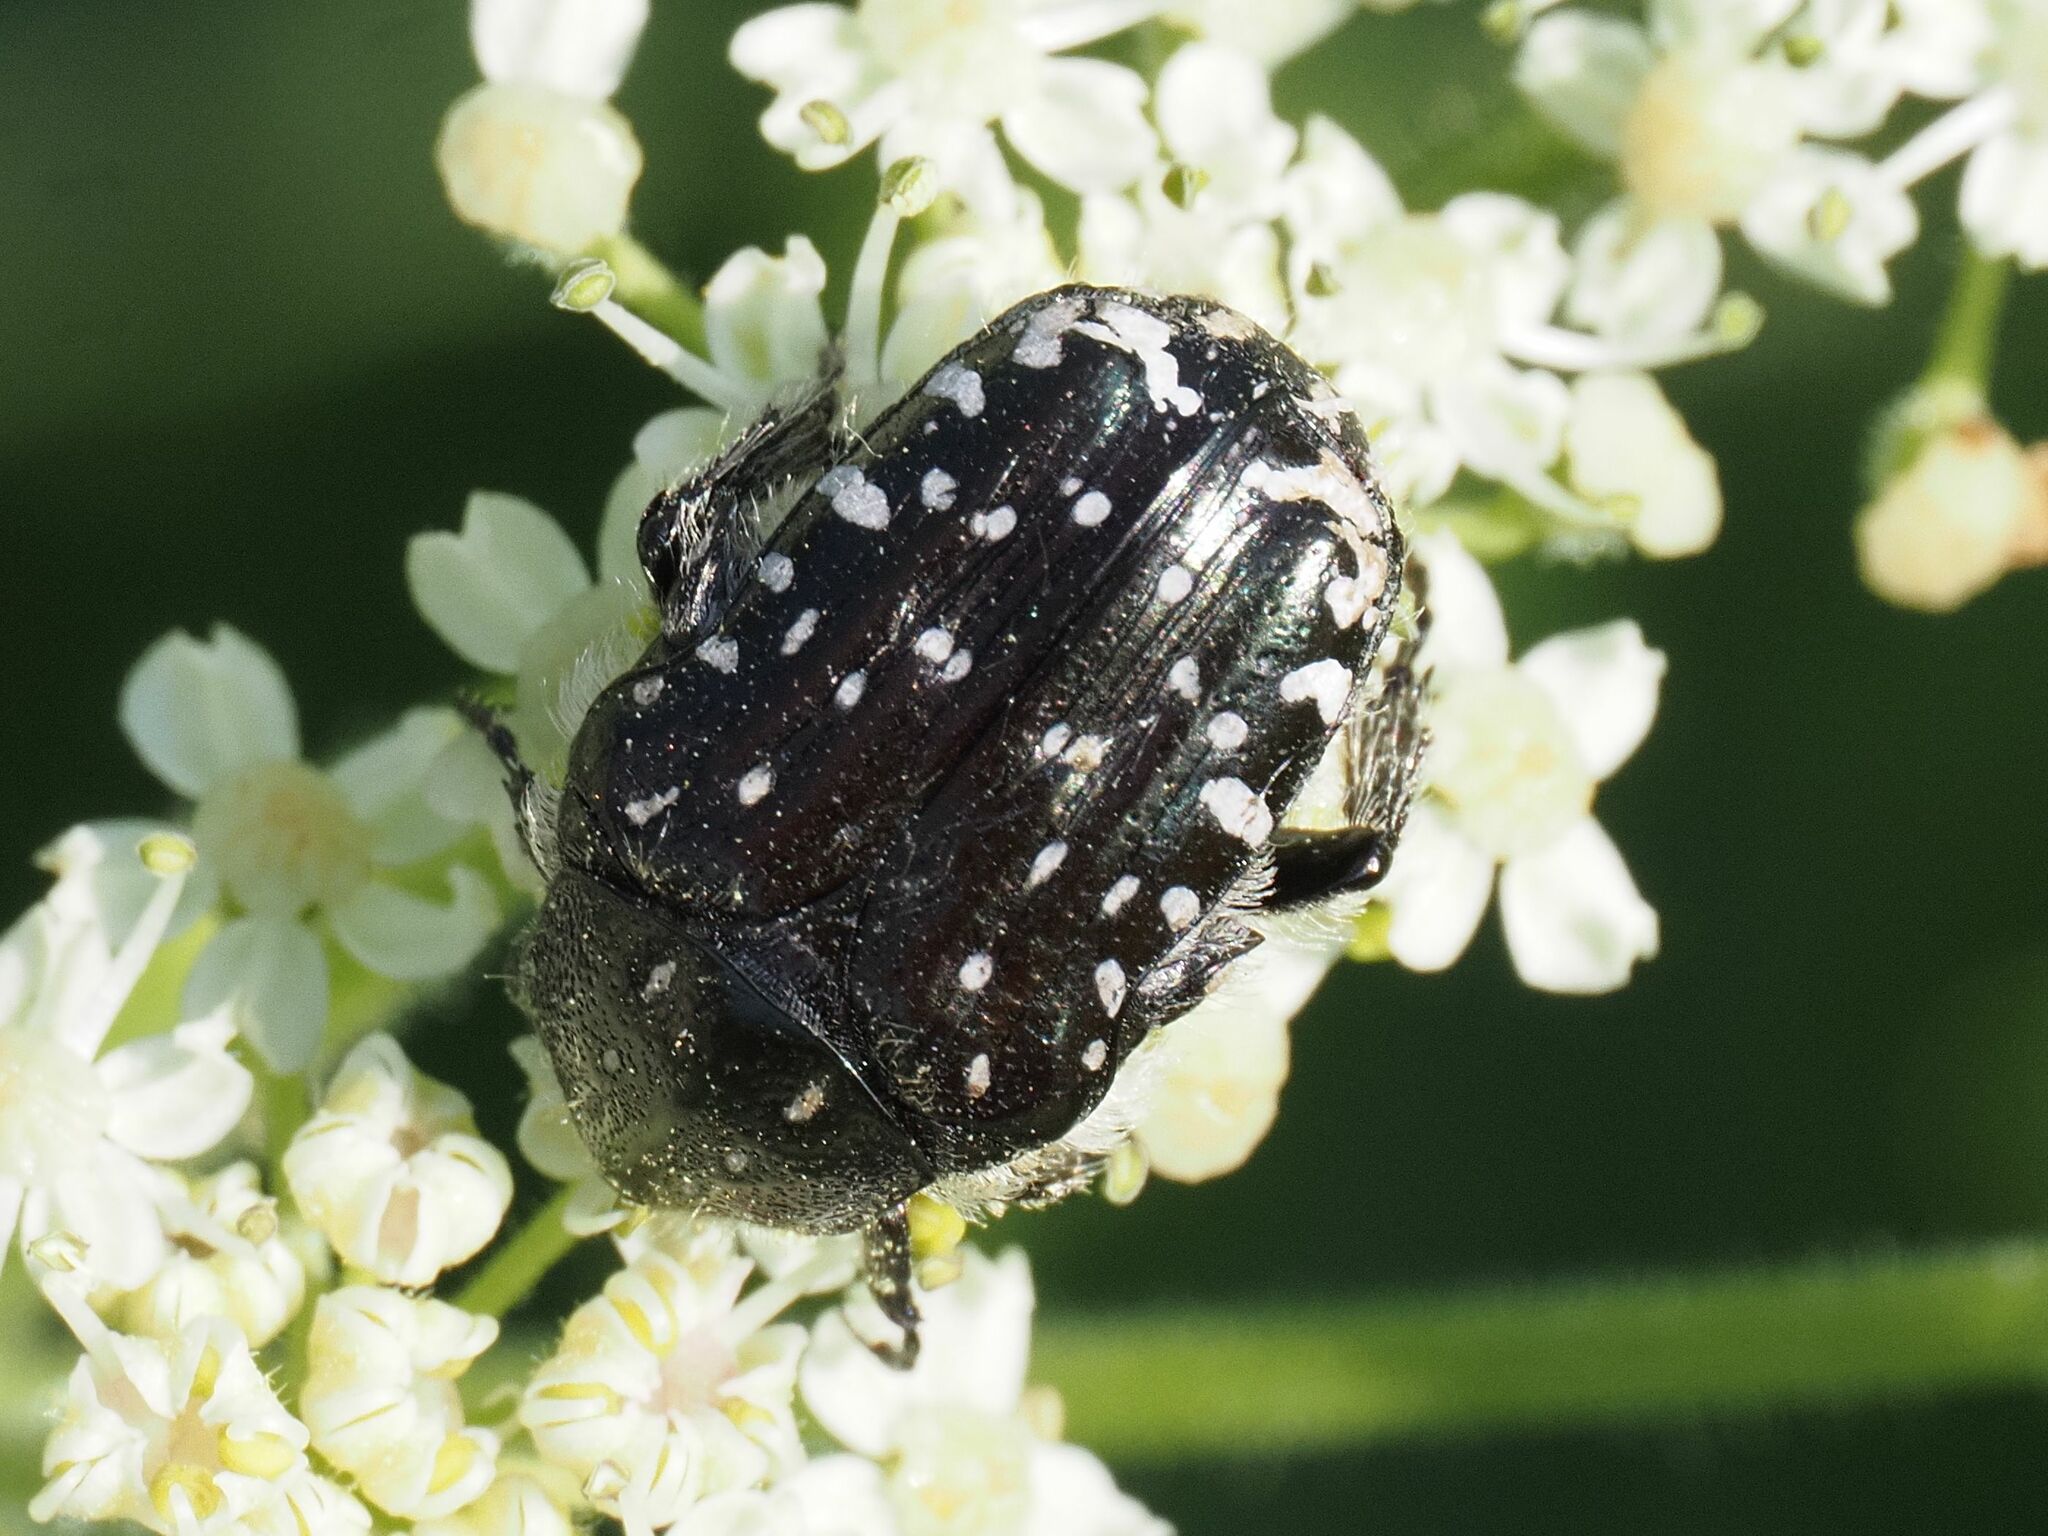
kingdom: Animalia
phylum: Arthropoda
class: Insecta
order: Coleoptera
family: Scarabaeidae
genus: Oxythyrea
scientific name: Oxythyrea funesta
